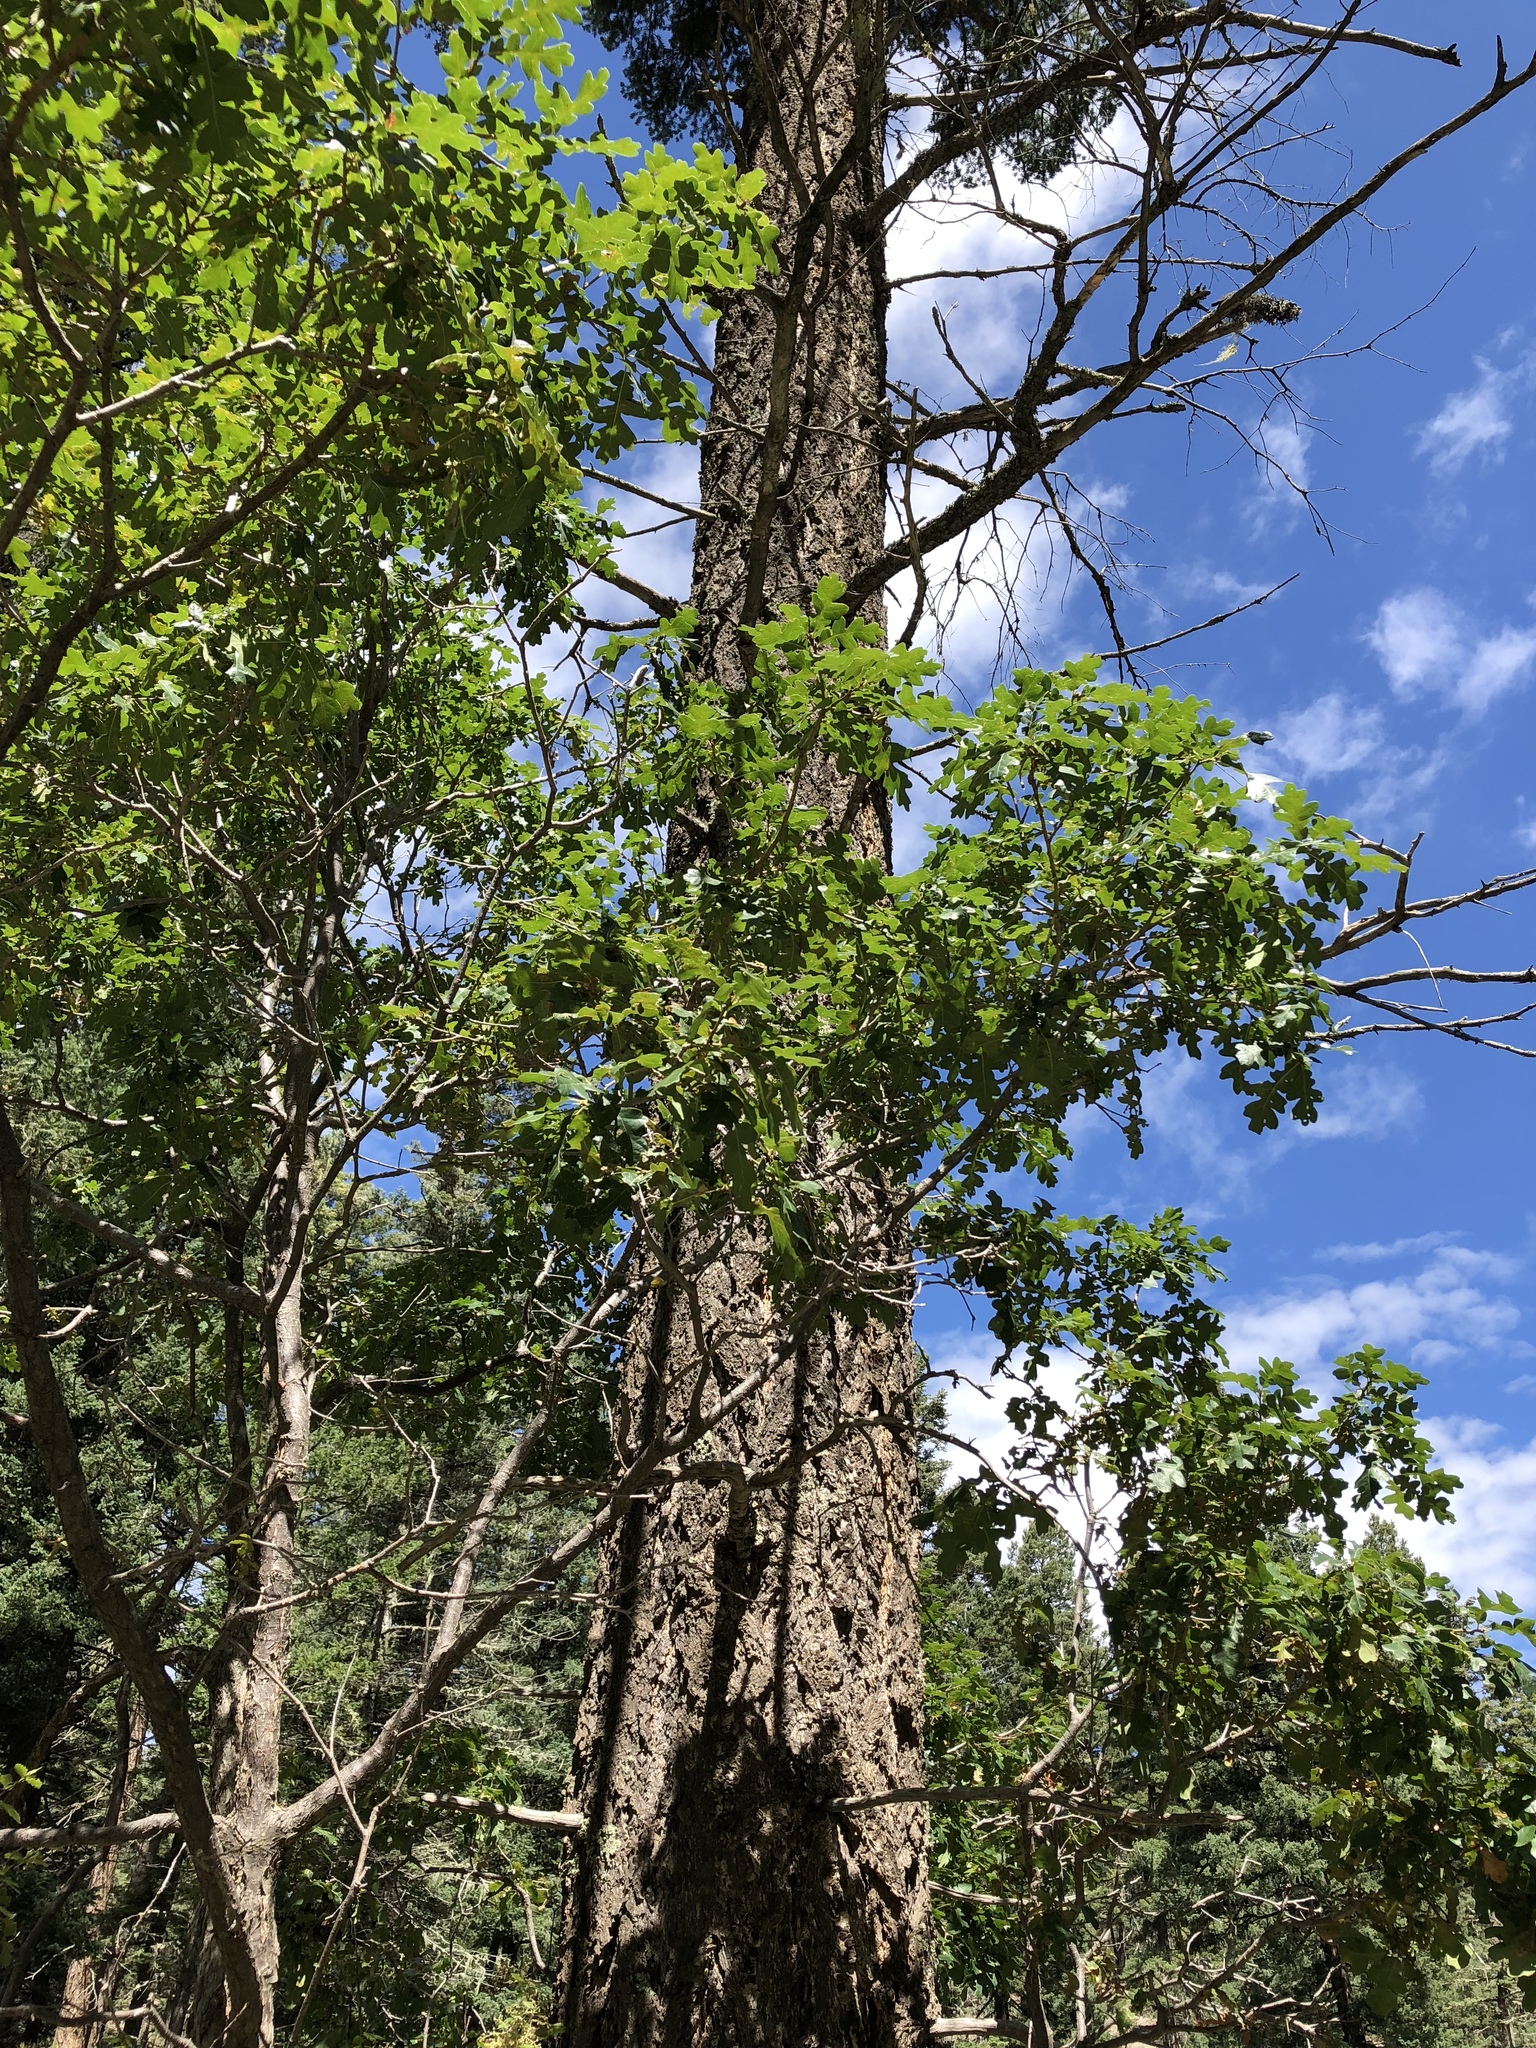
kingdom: Plantae
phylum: Tracheophyta
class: Magnoliopsida
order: Fagales
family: Fagaceae
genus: Quercus
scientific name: Quercus gambelii
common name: Gambel oak
